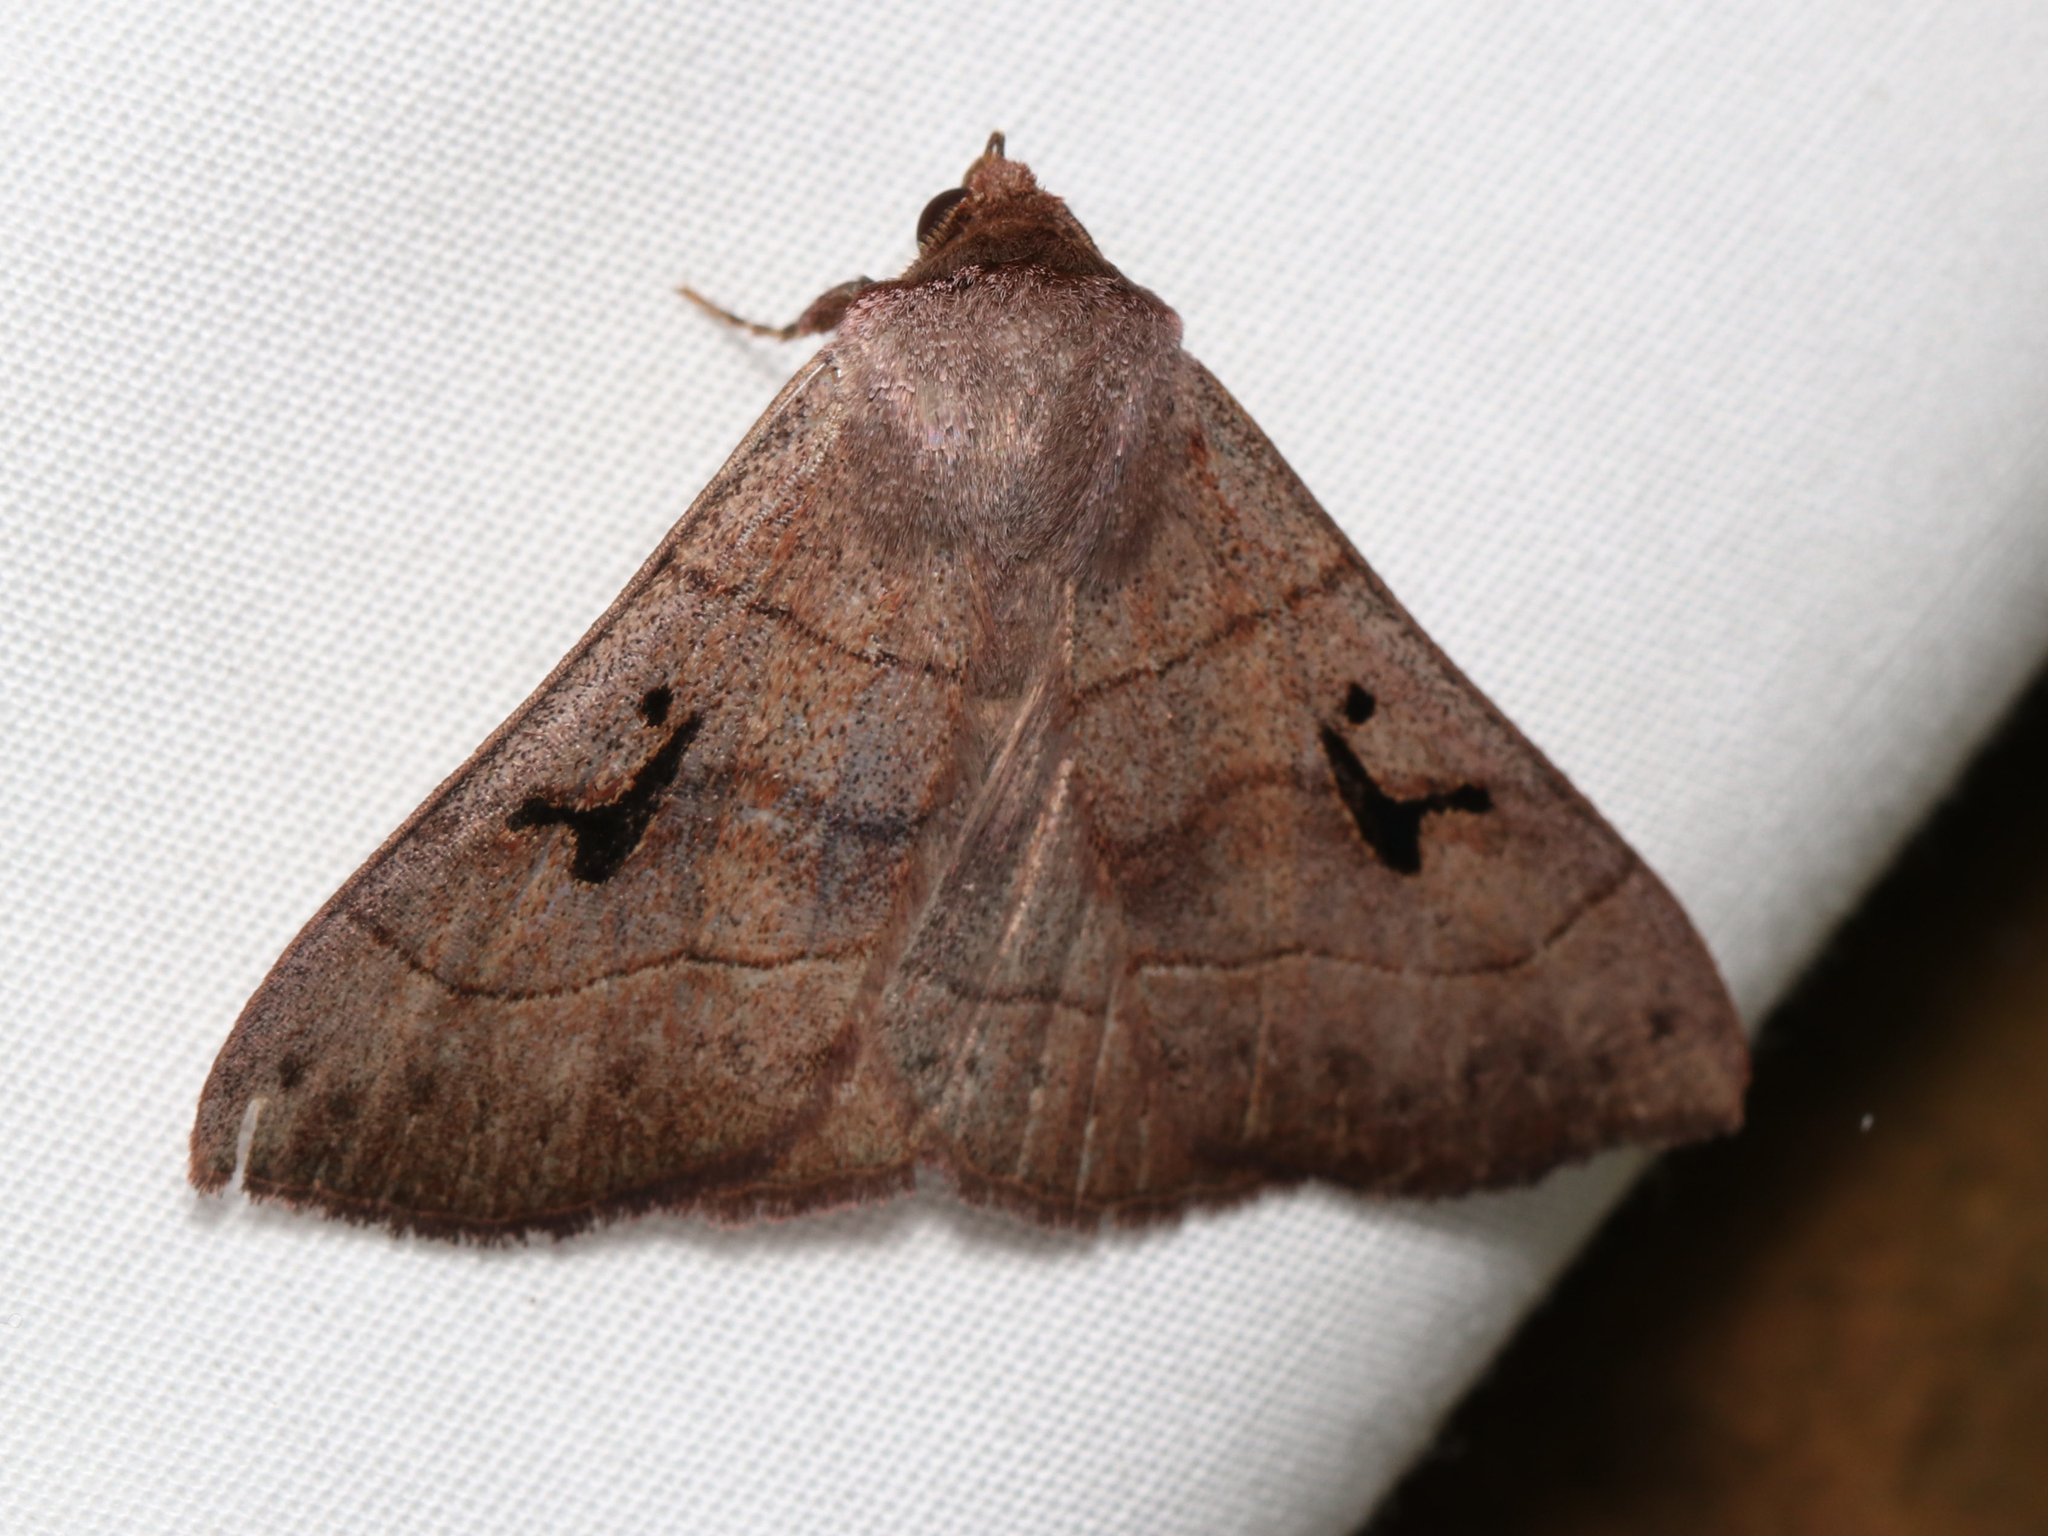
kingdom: Animalia
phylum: Arthropoda
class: Insecta
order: Lepidoptera
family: Erebidae
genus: Panopoda
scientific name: Panopoda carneicosta
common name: Brown panopoda moth
